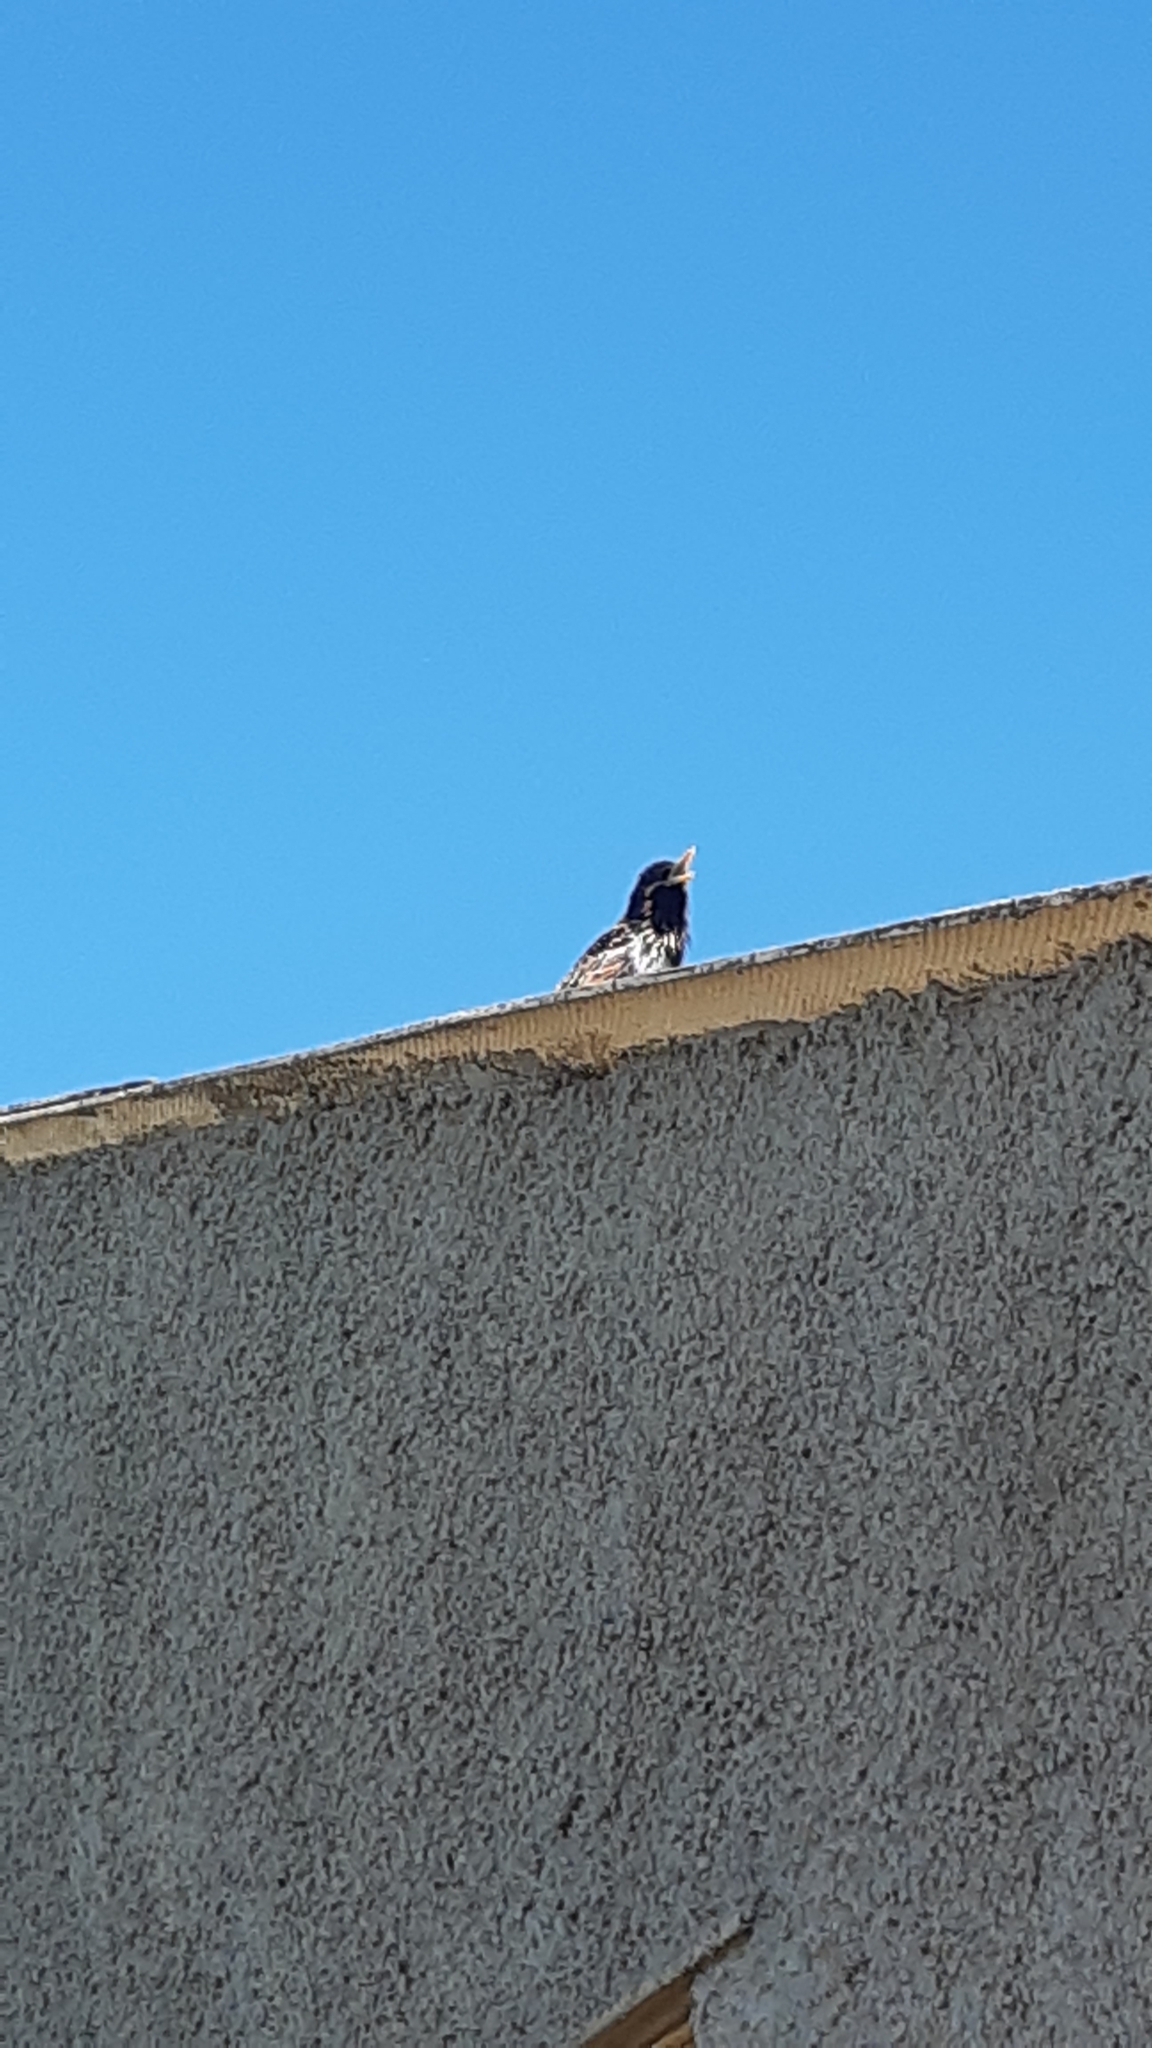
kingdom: Animalia
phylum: Chordata
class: Aves
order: Passeriformes
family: Sturnidae
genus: Sturnus
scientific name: Sturnus vulgaris
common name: Common starling
